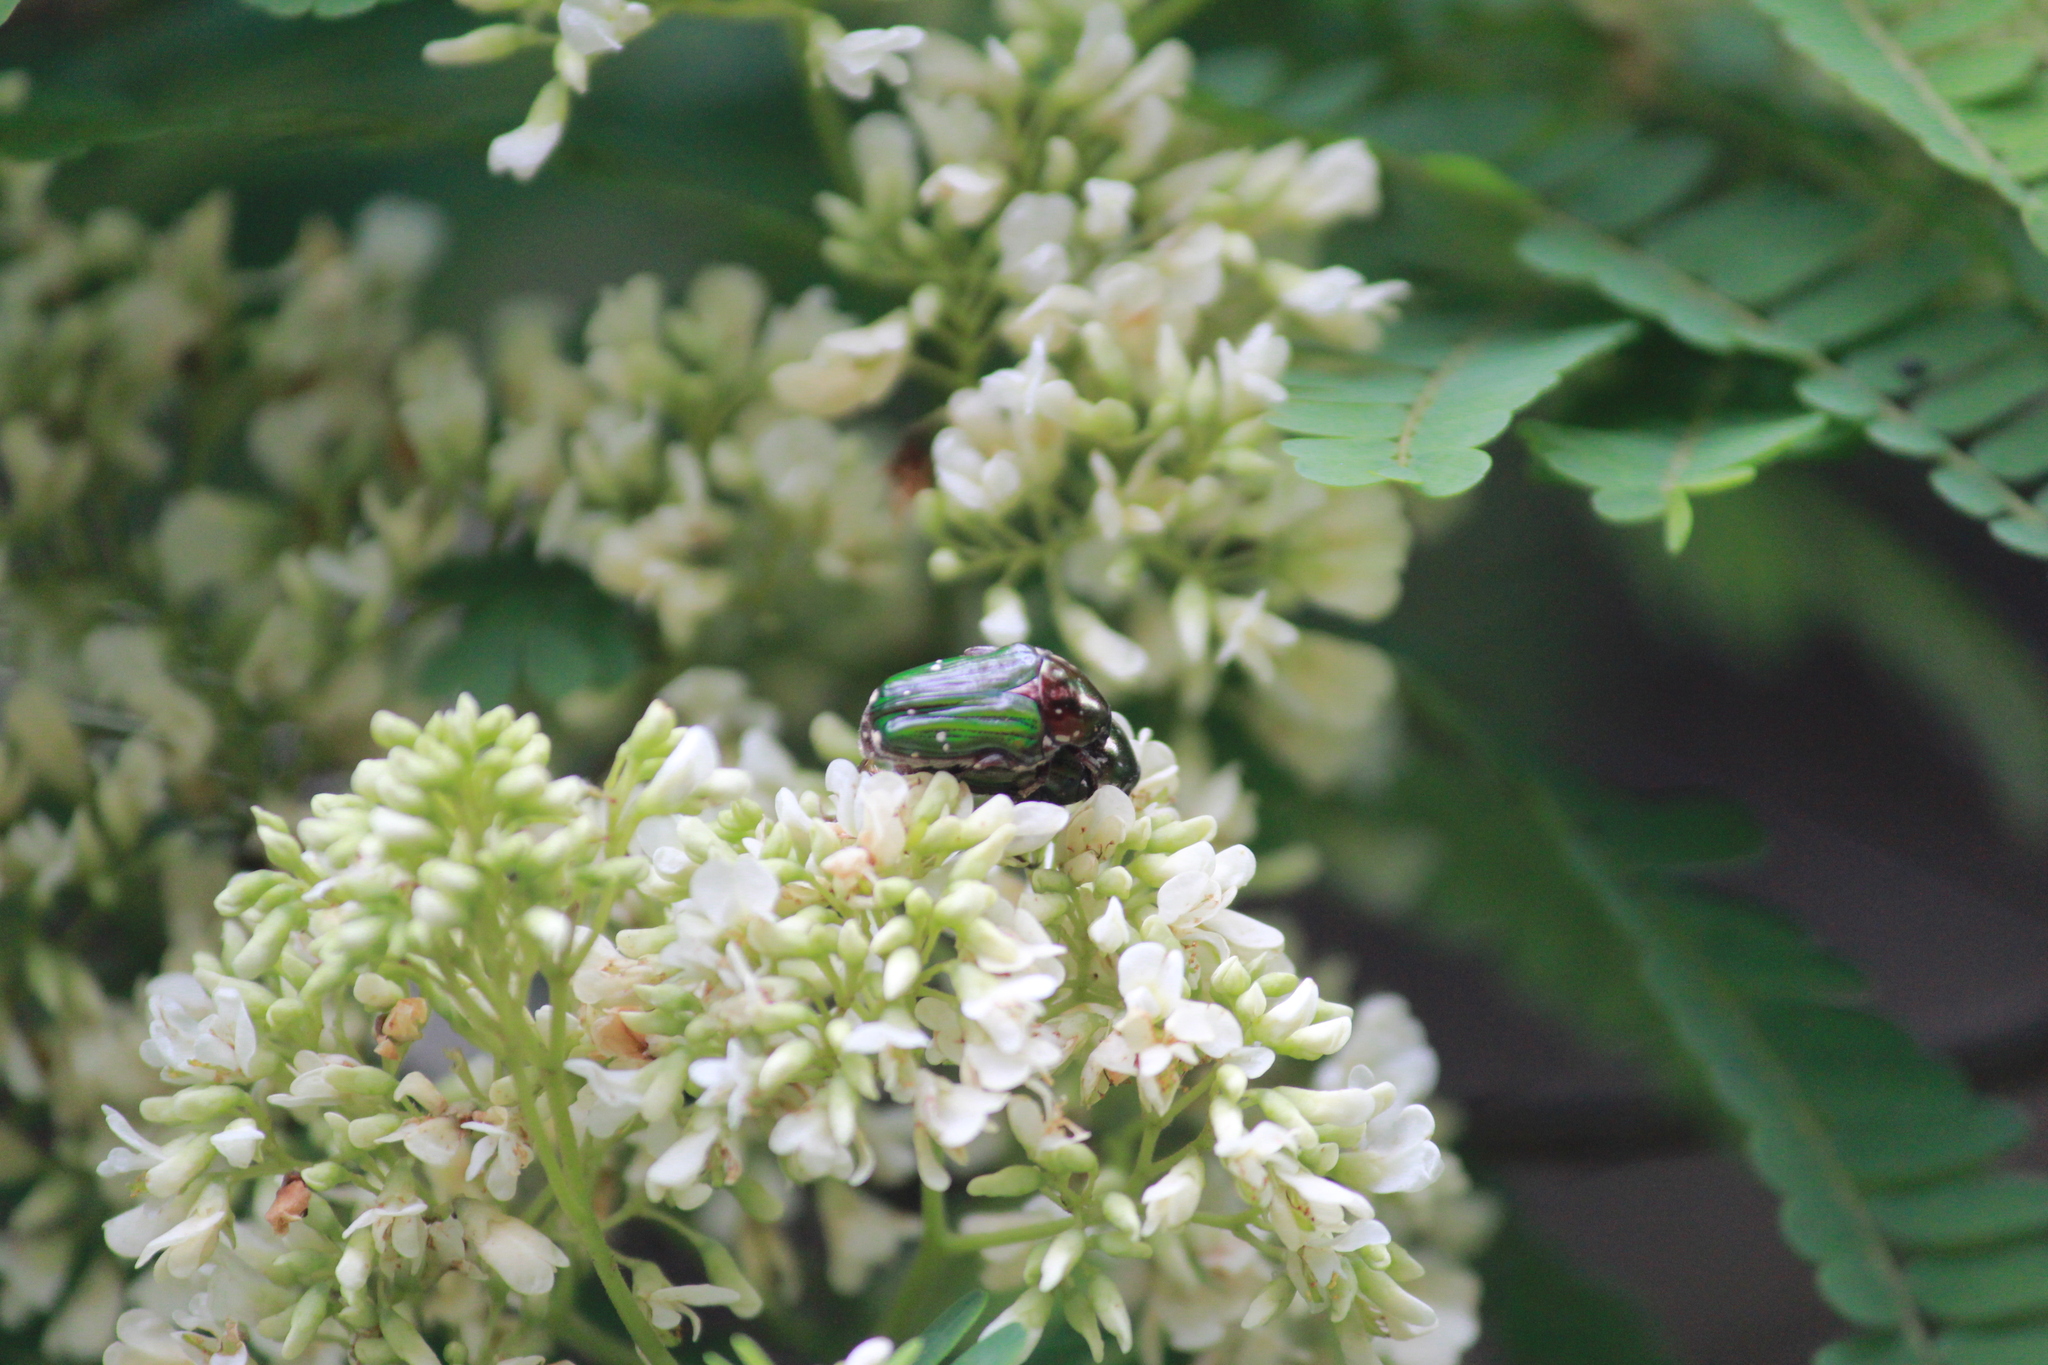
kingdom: Animalia
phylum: Arthropoda
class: Insecta
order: Coleoptera
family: Scarabaeidae
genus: Leucocelis
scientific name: Leucocelis aeneicollis
